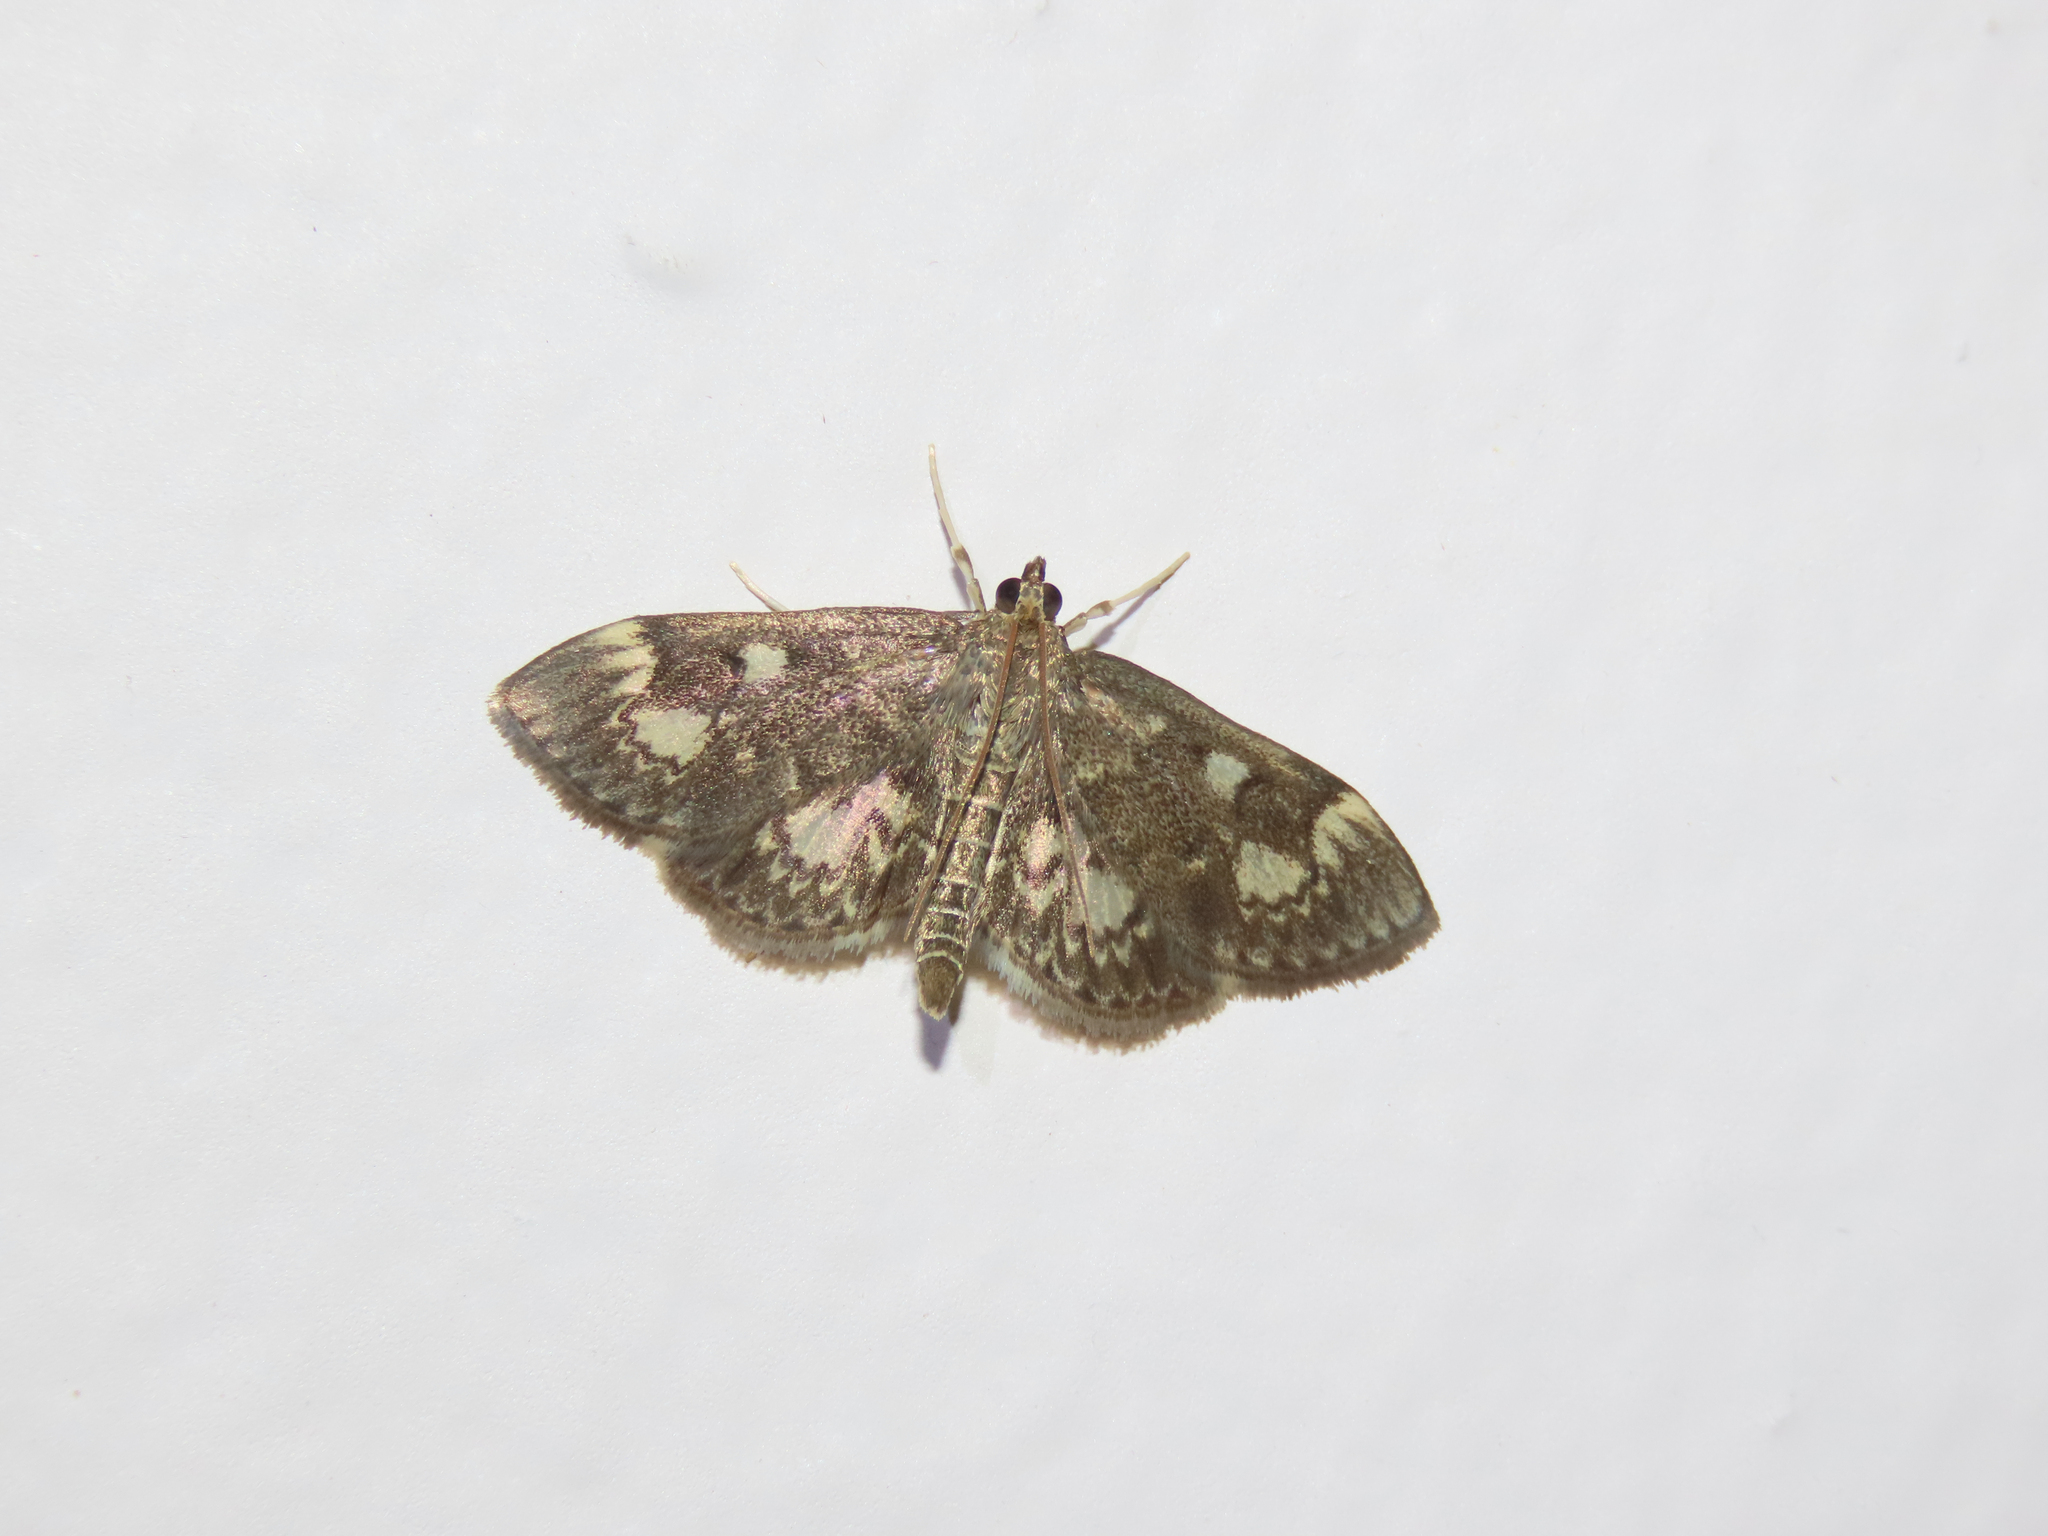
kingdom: Animalia
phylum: Arthropoda
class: Insecta
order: Lepidoptera
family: Crambidae
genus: Anania
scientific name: Anania
